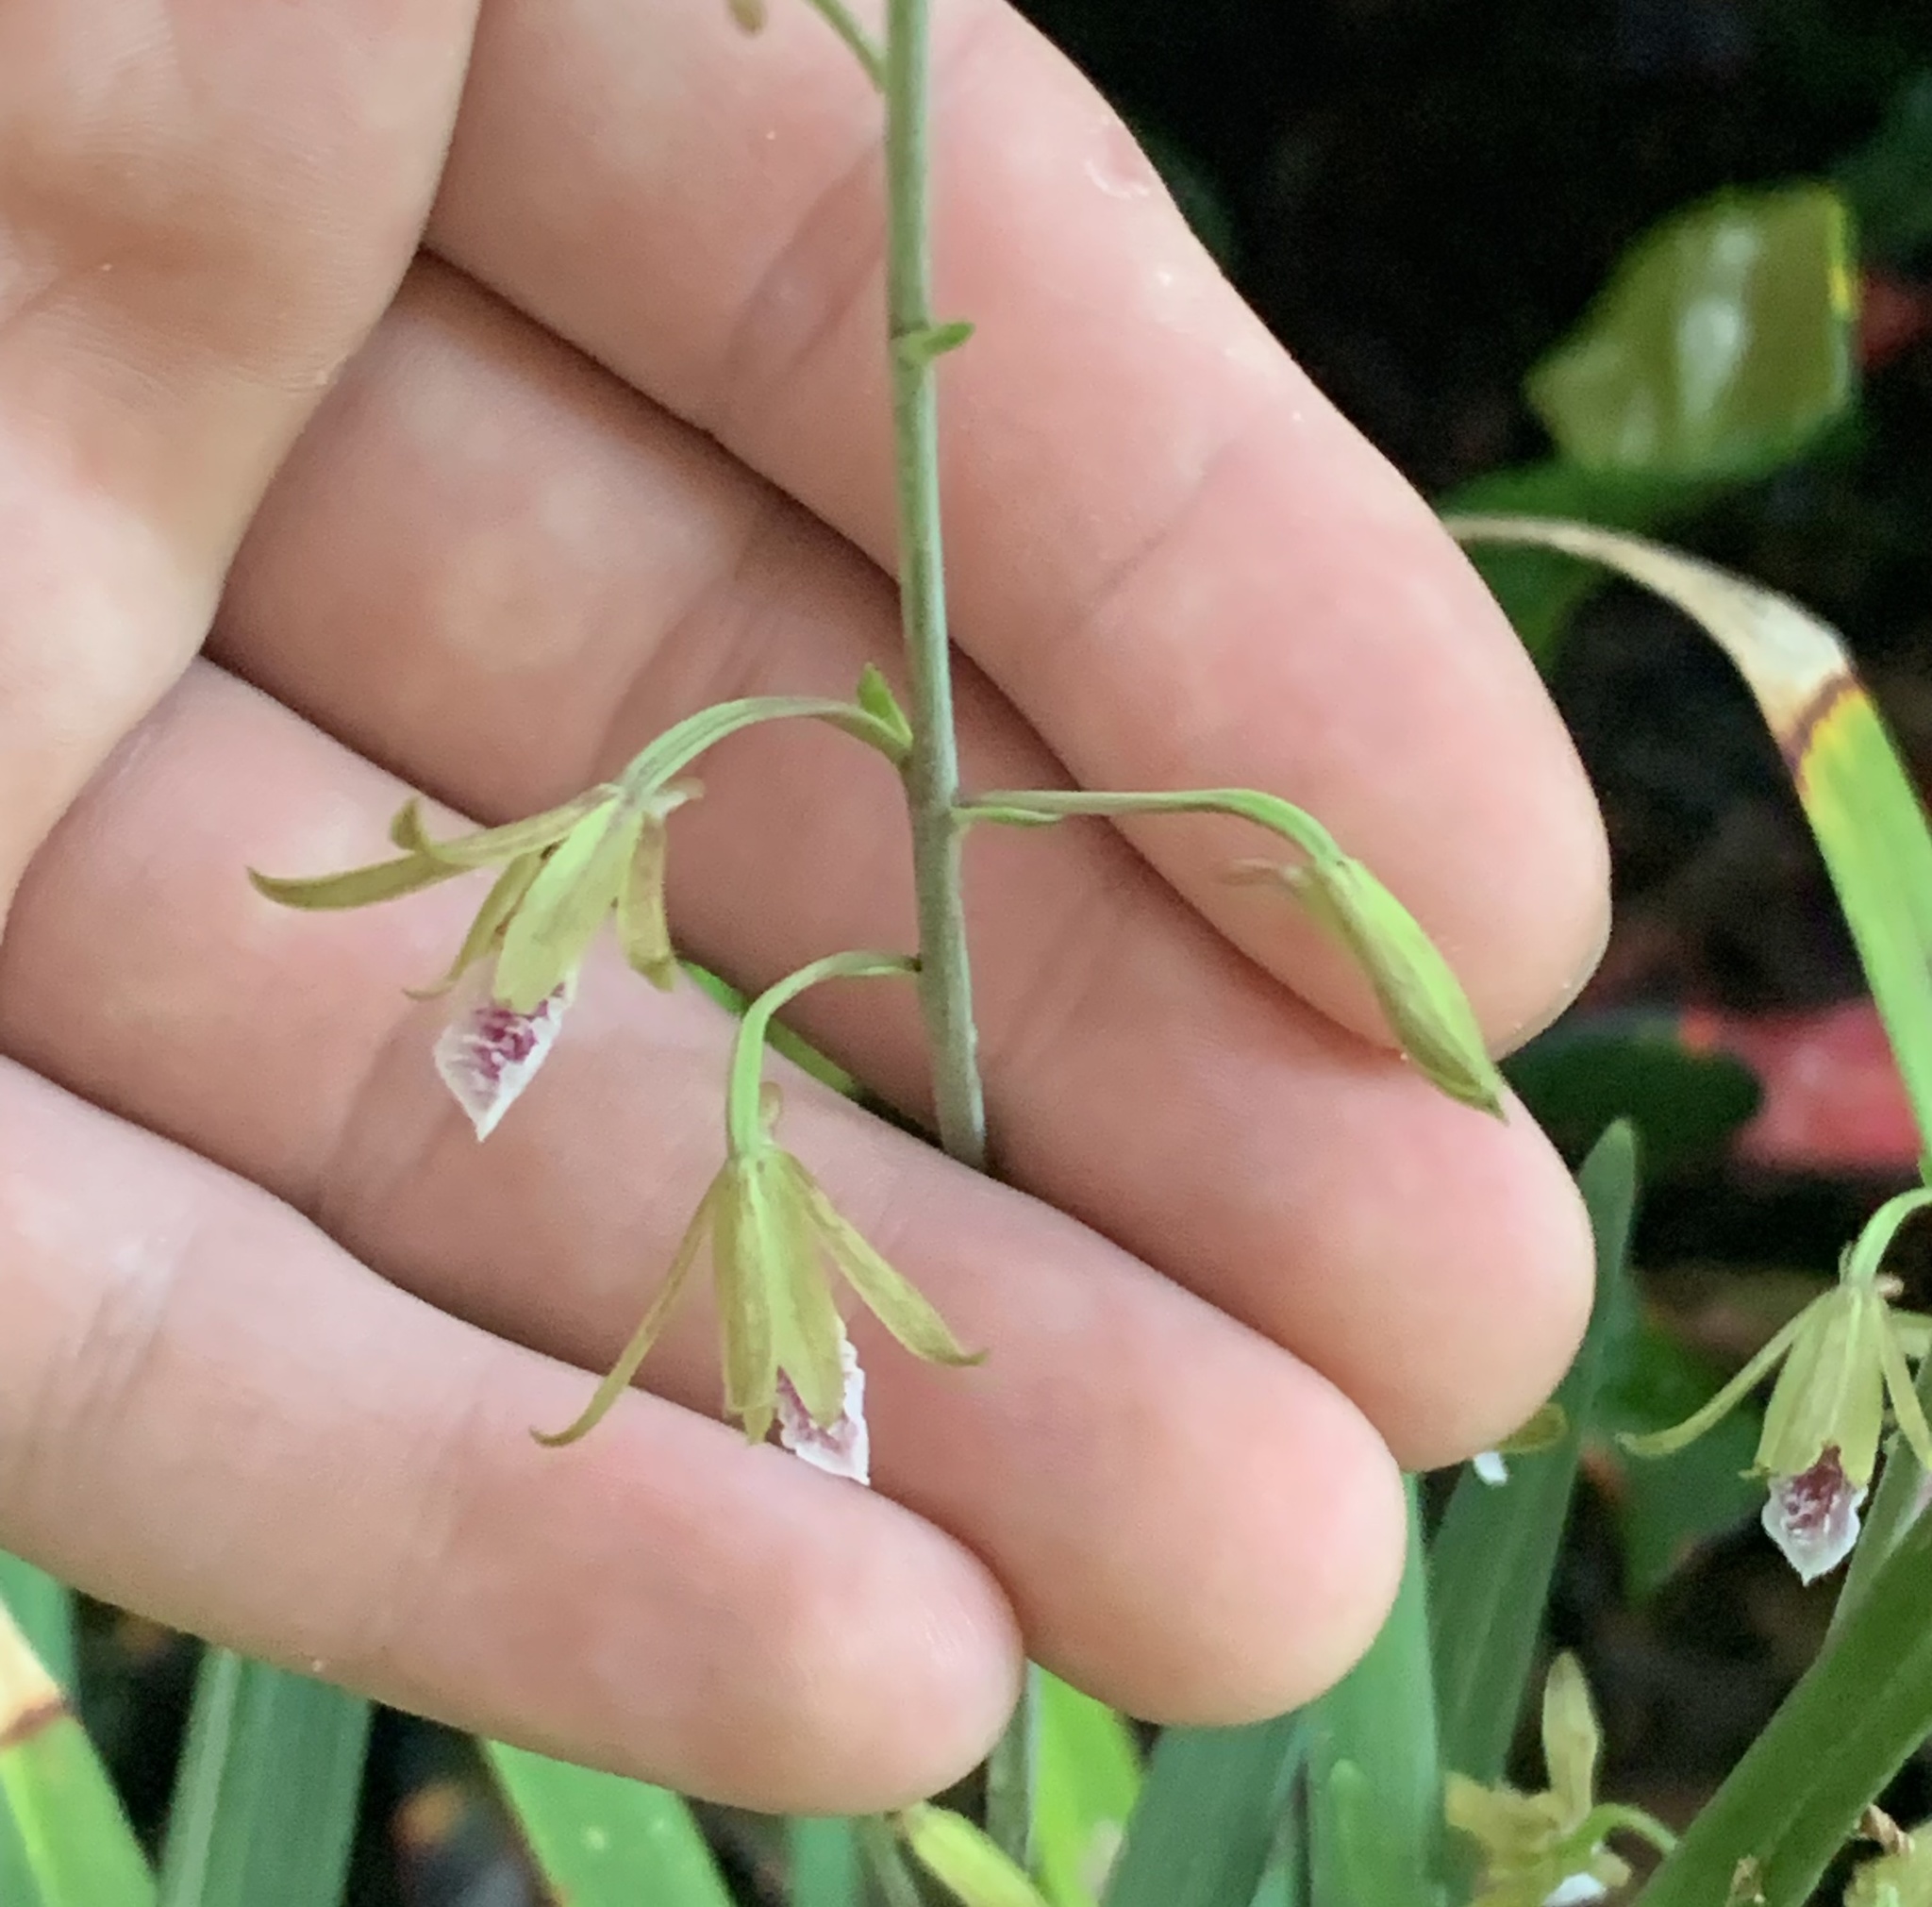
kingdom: Plantae
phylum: Tracheophyta
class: Liliopsida
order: Asparagales
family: Orchidaceae
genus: Eulophia
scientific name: Eulophia graminea
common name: Orchid
